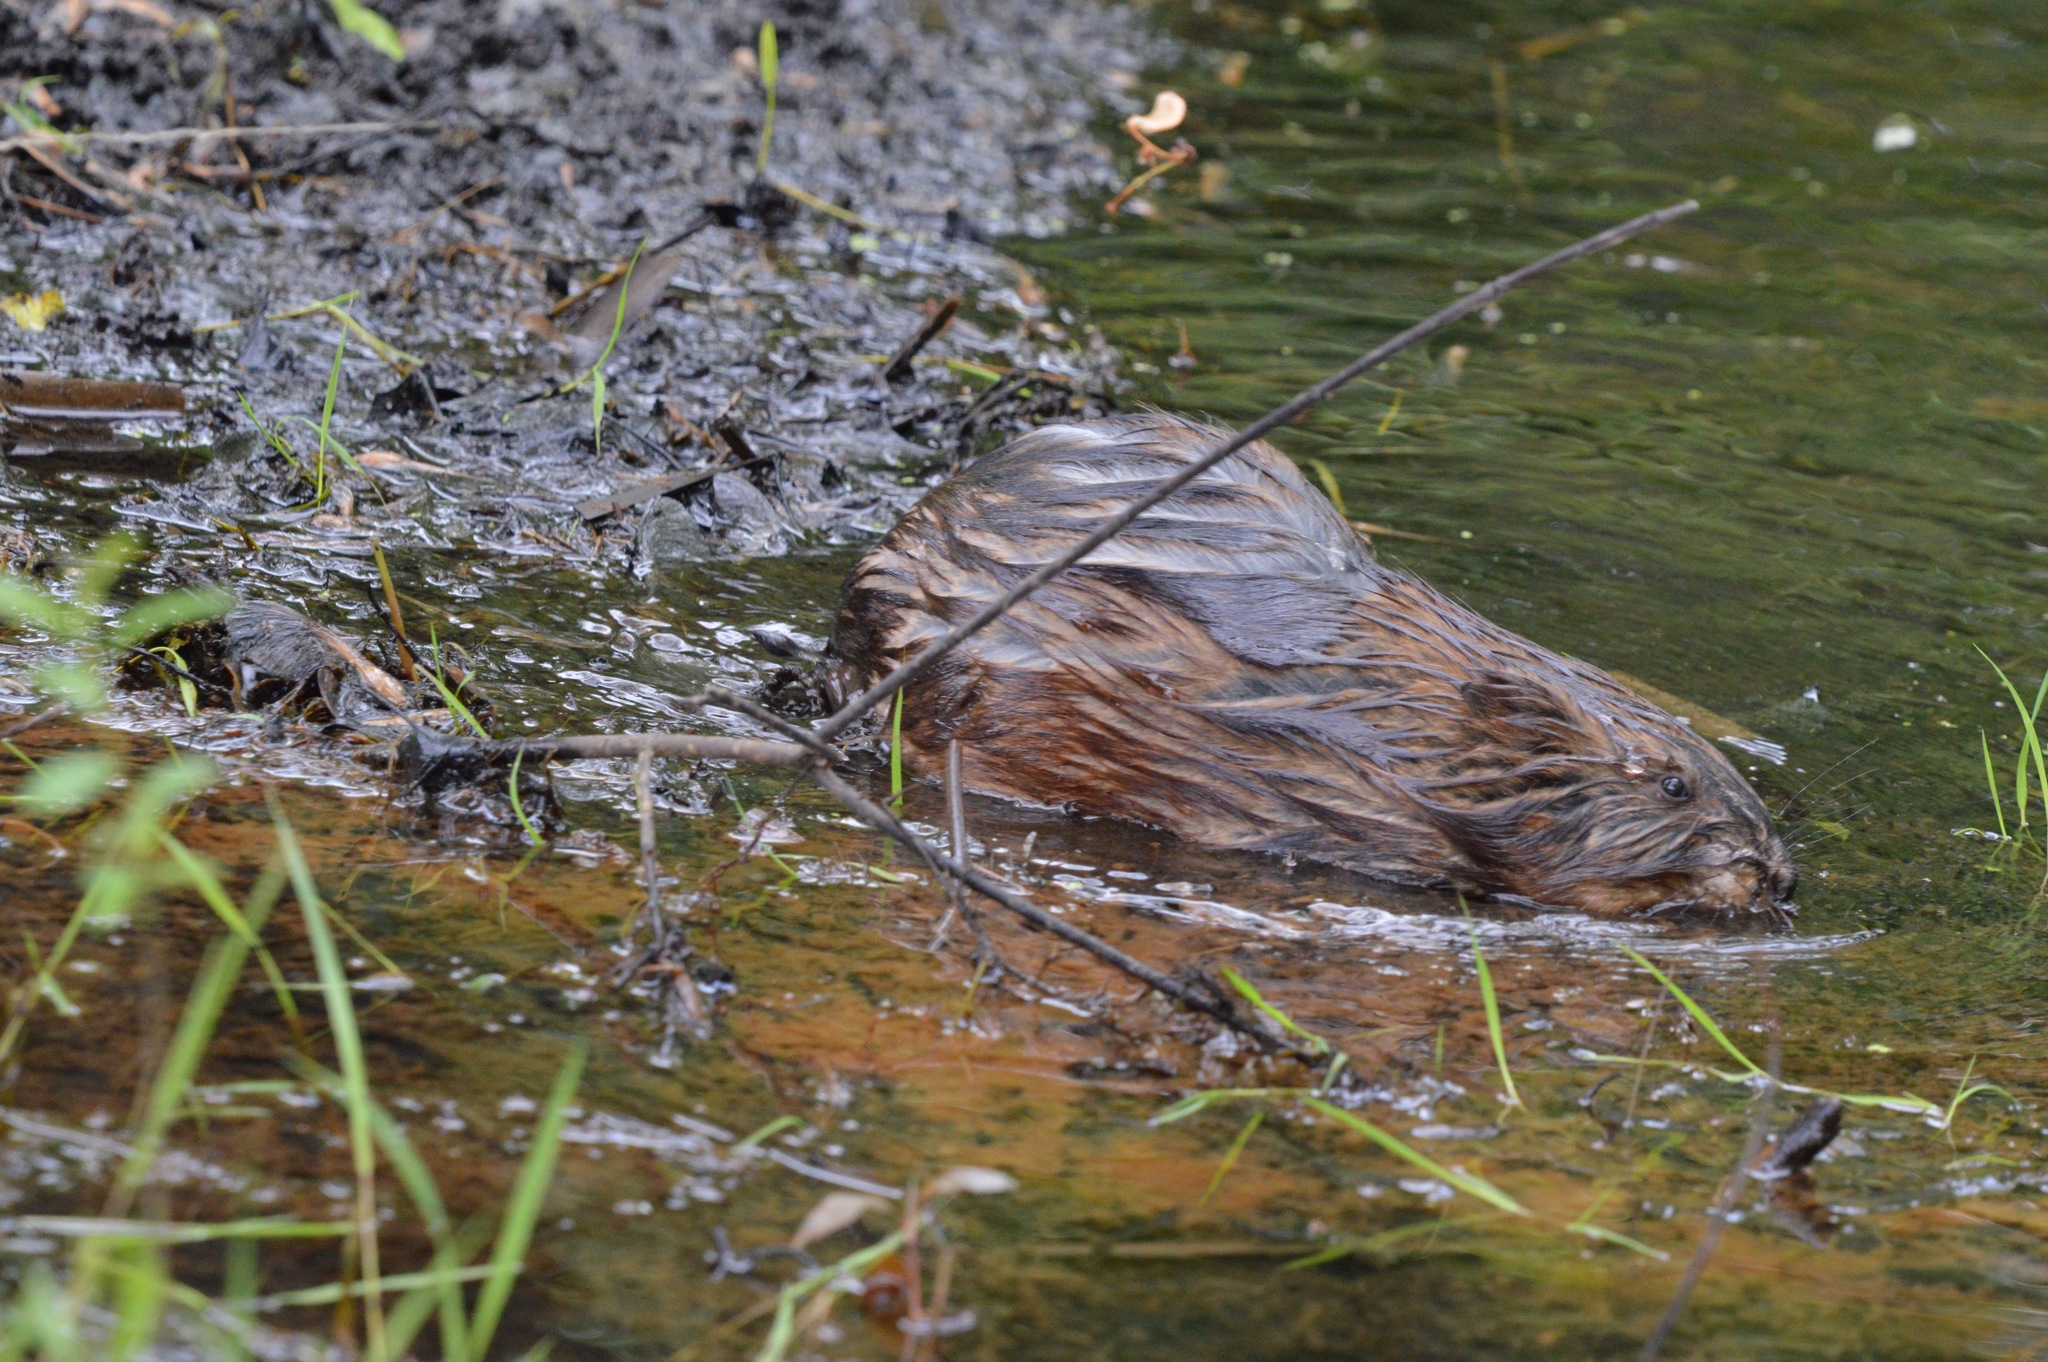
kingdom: Animalia
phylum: Chordata
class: Mammalia
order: Rodentia
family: Cricetidae
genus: Ondatra
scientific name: Ondatra zibethicus
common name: Muskrat
